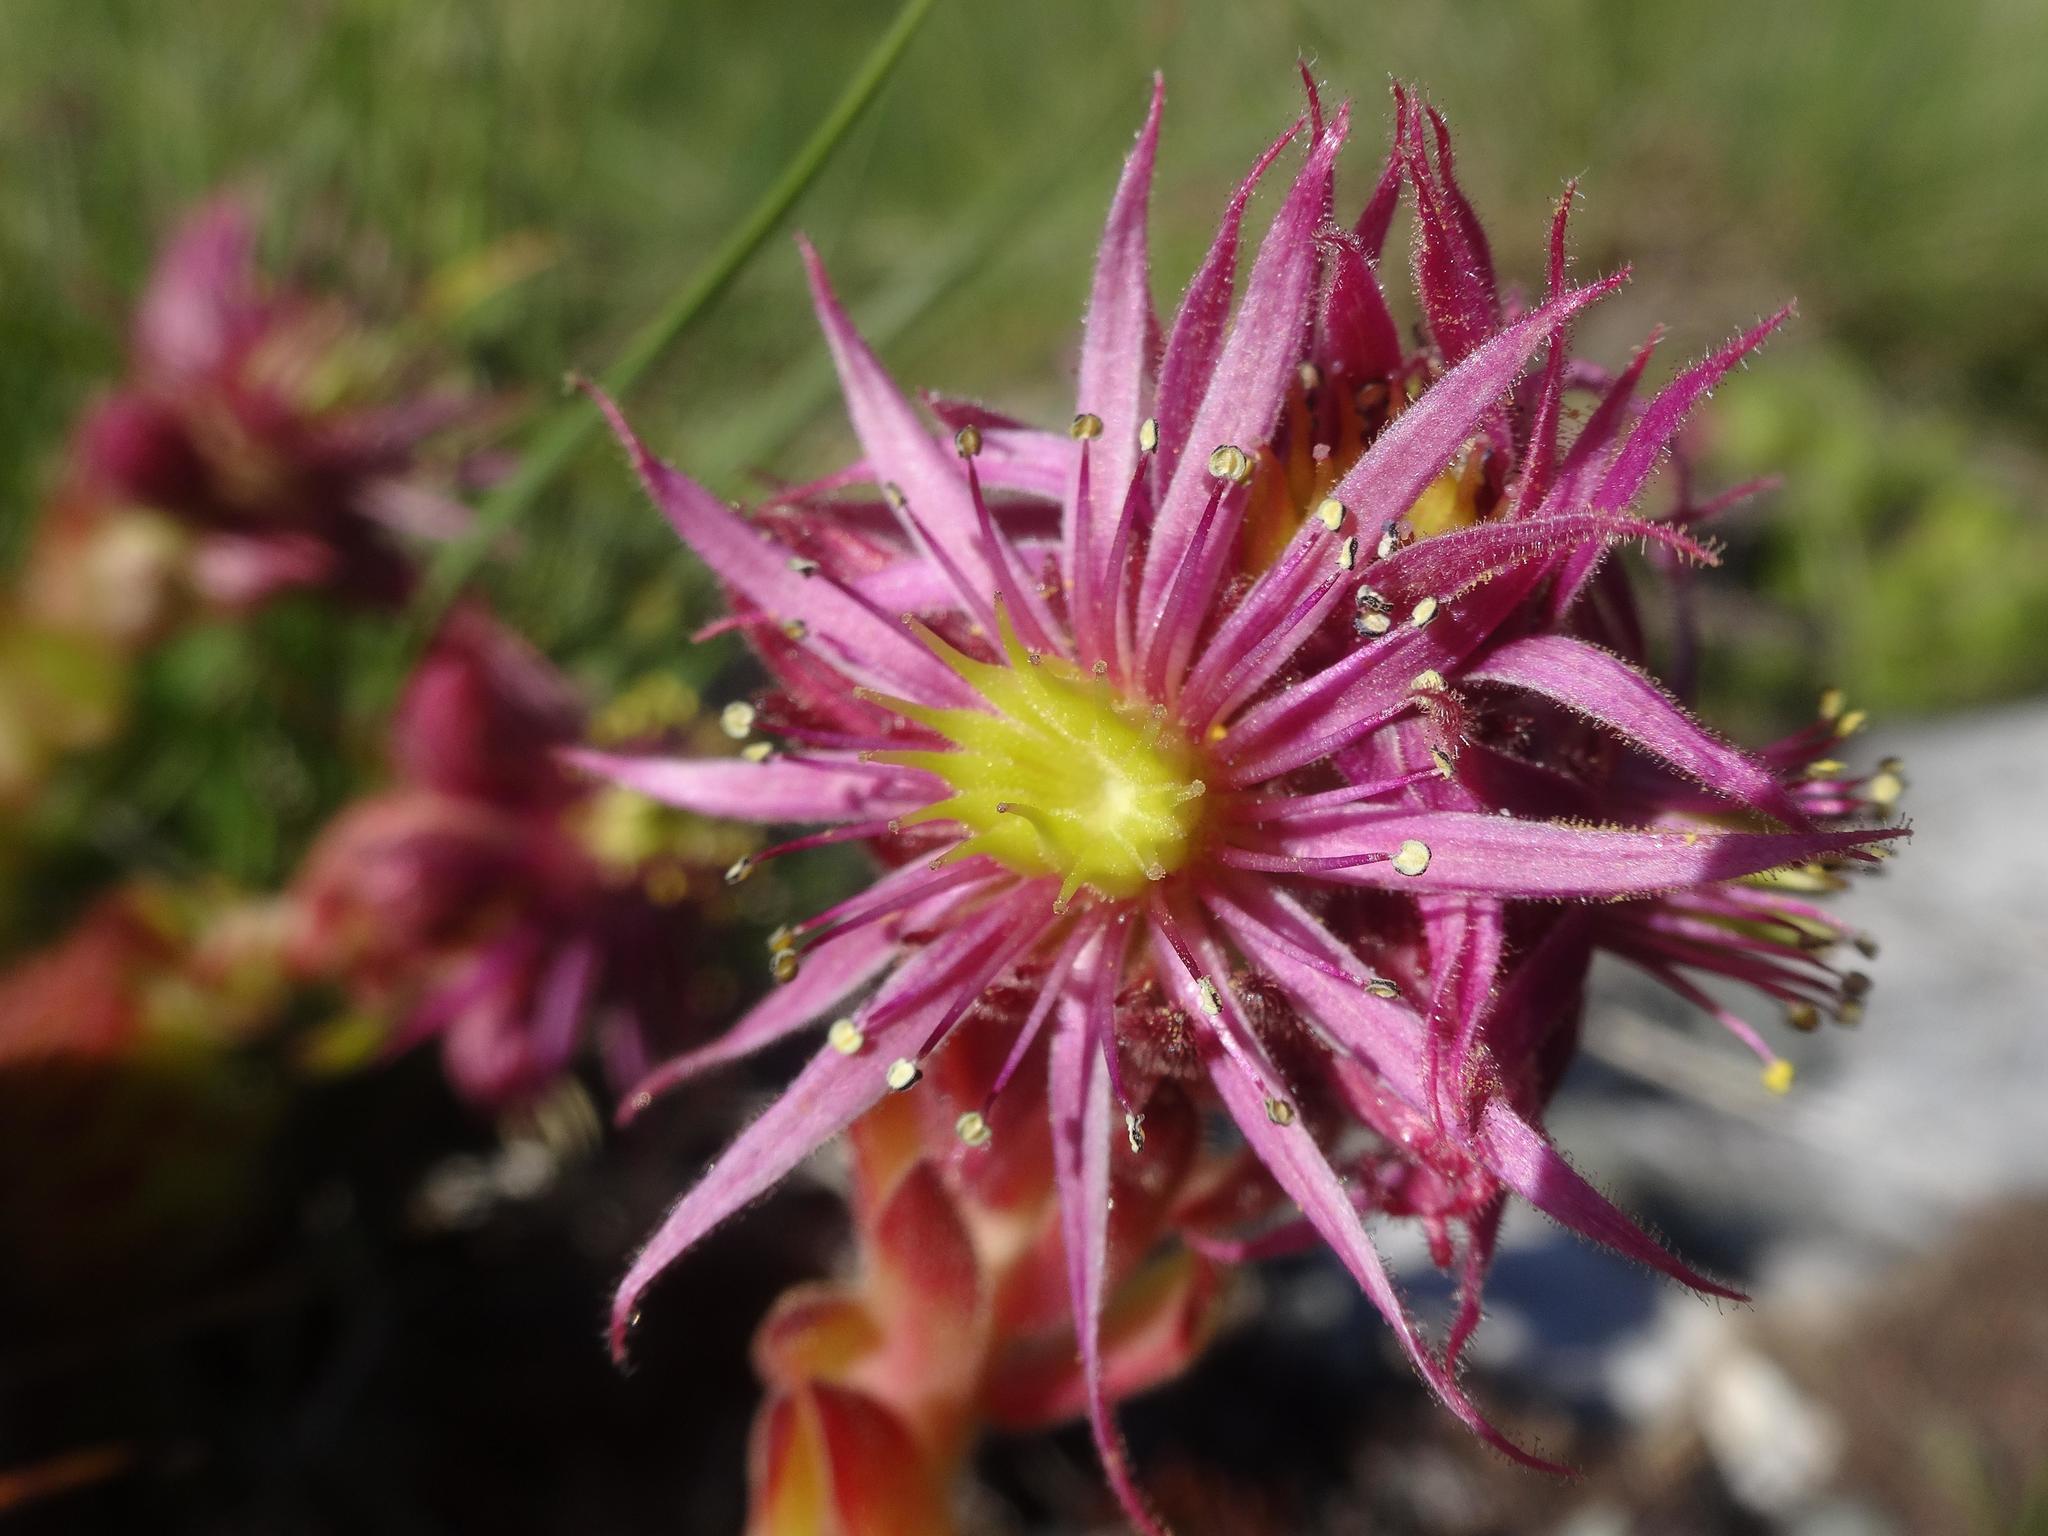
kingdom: Plantae
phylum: Tracheophyta
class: Magnoliopsida
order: Saxifragales
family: Crassulaceae
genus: Sempervivum
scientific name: Sempervivum montanum
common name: Mountain house-leek
